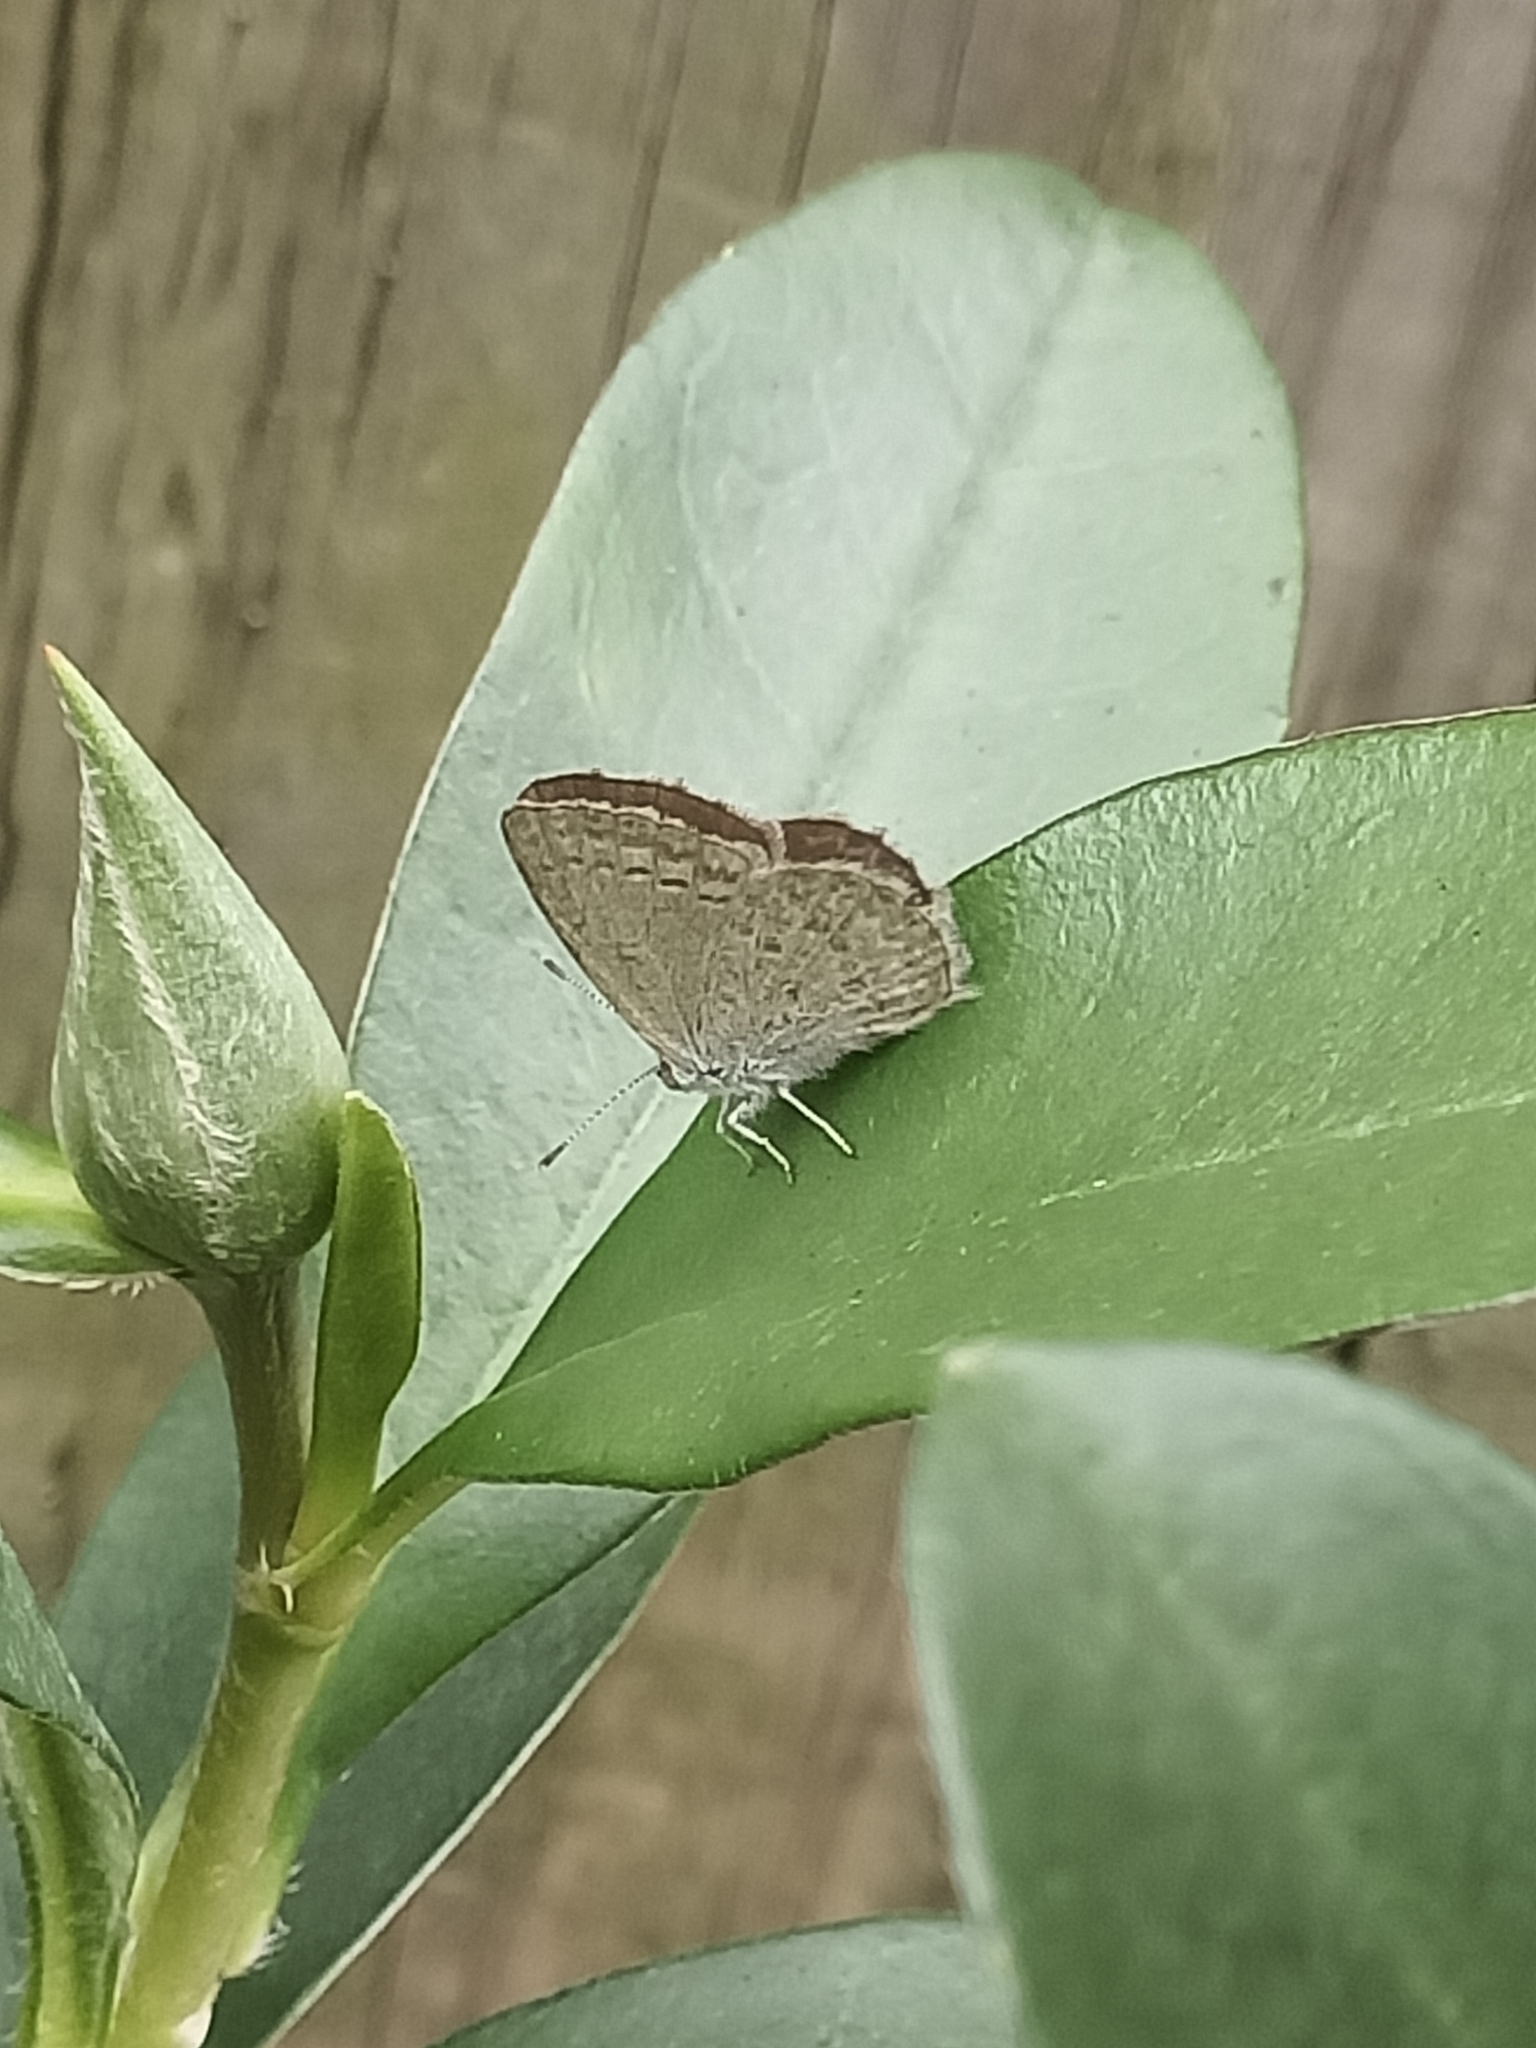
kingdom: Animalia
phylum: Arthropoda
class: Insecta
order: Lepidoptera
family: Lycaenidae
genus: Zizina
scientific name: Zizina labradus
